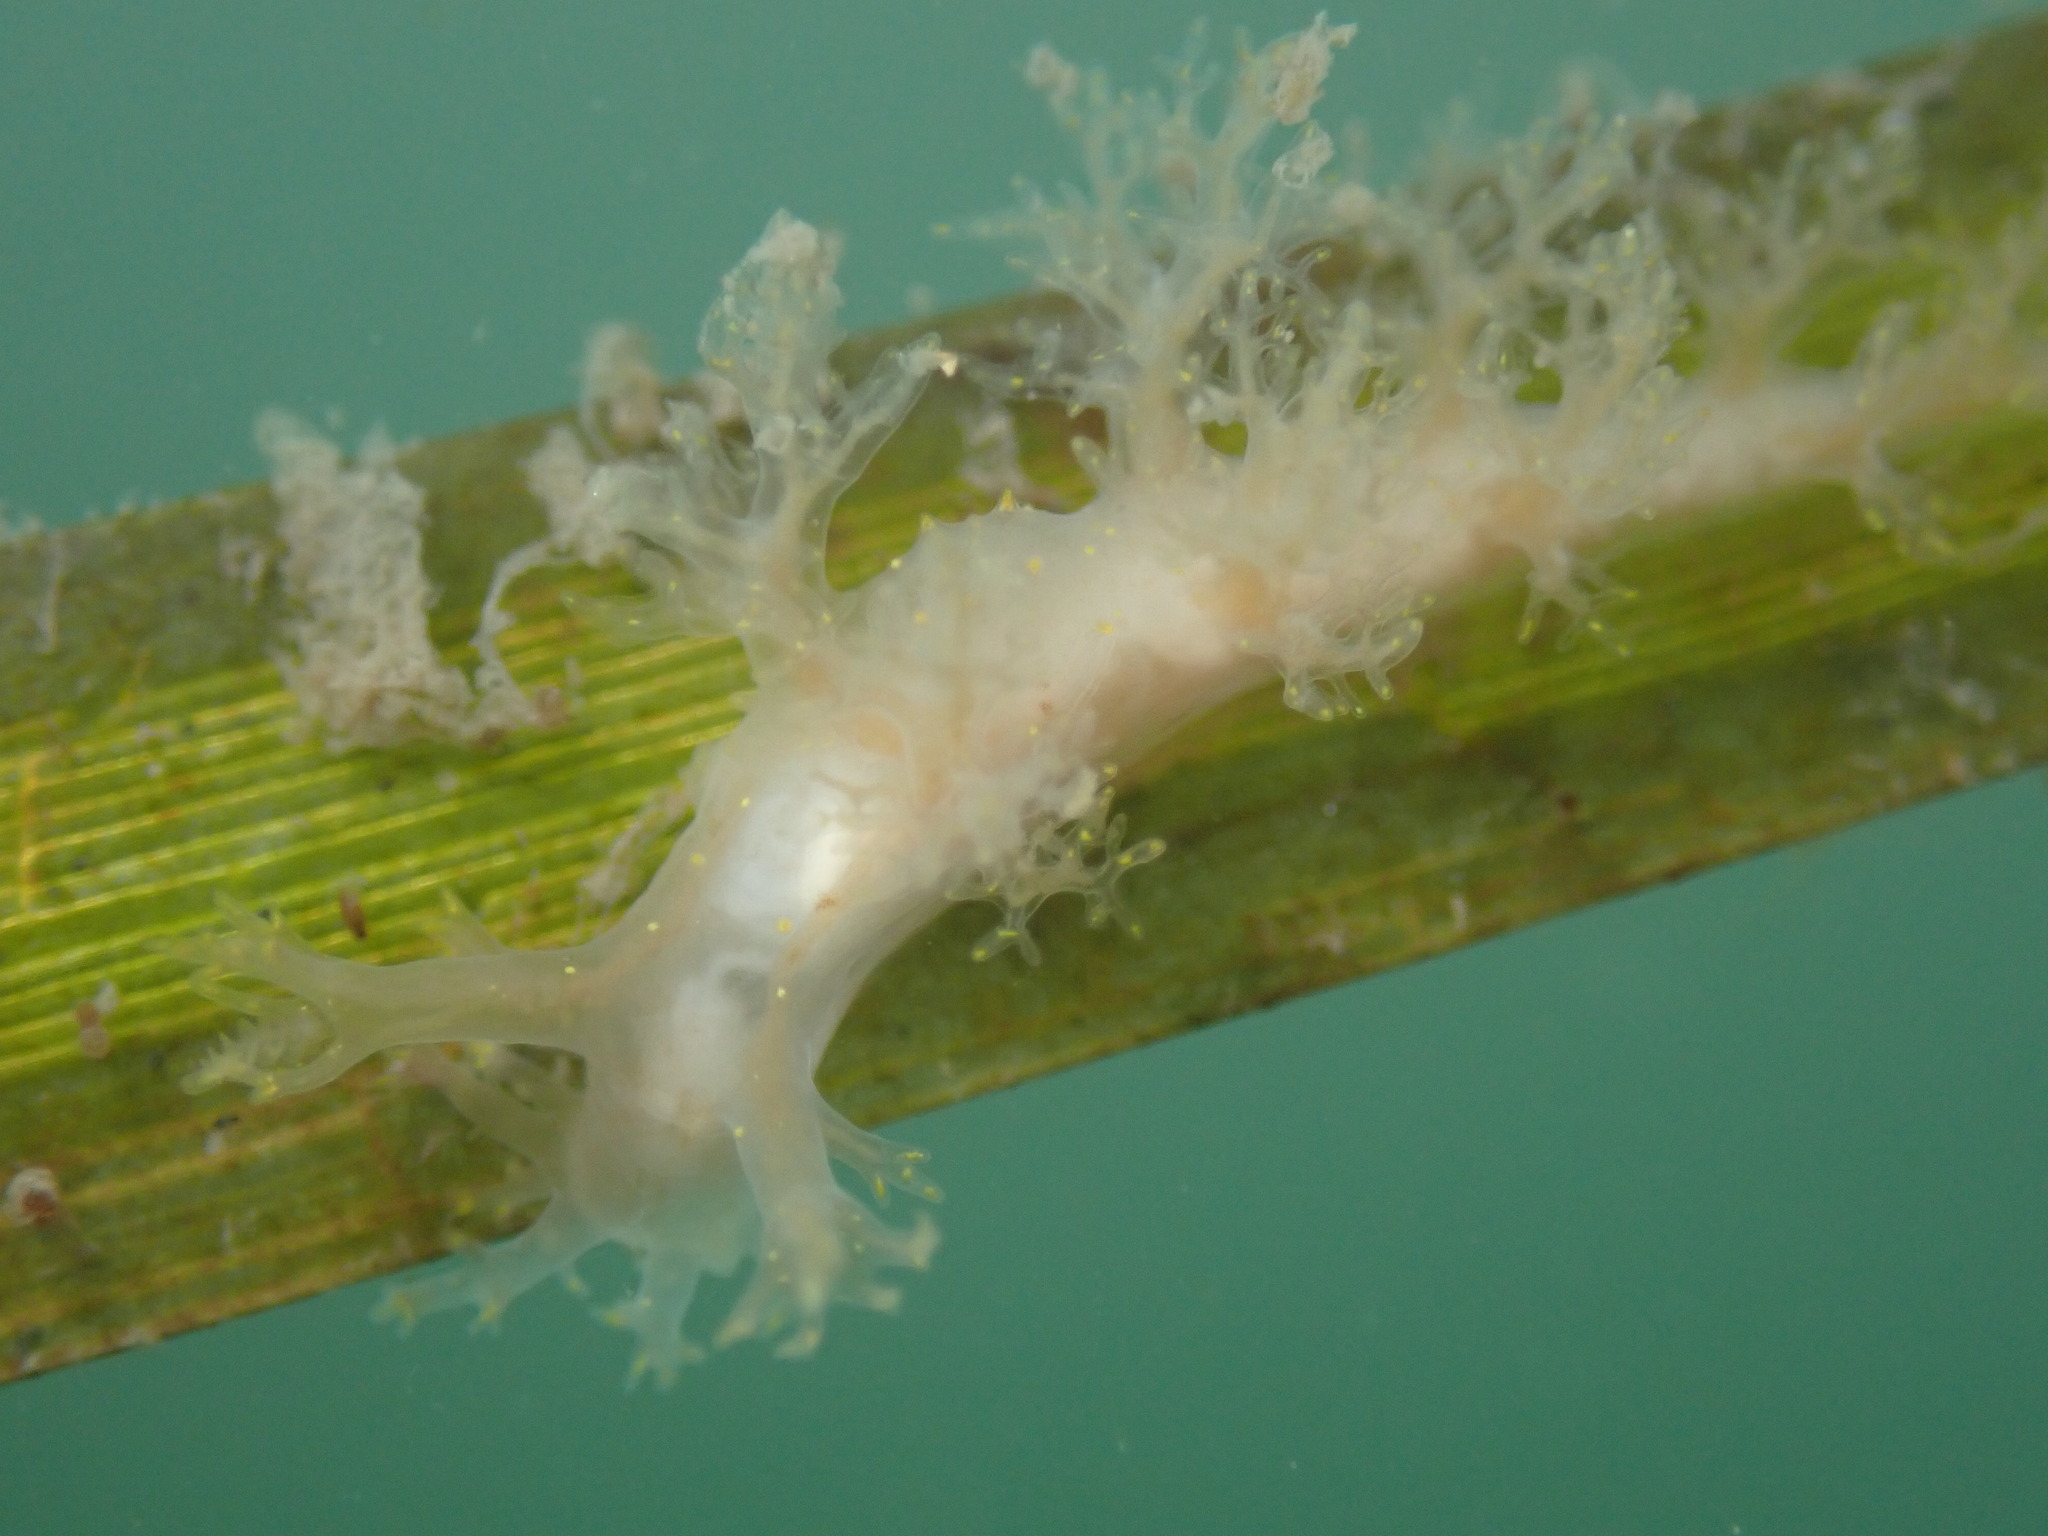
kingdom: Animalia
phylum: Mollusca
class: Gastropoda
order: Nudibranchia
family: Dendronotidae
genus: Dendronotus
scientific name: Dendronotus venustus
